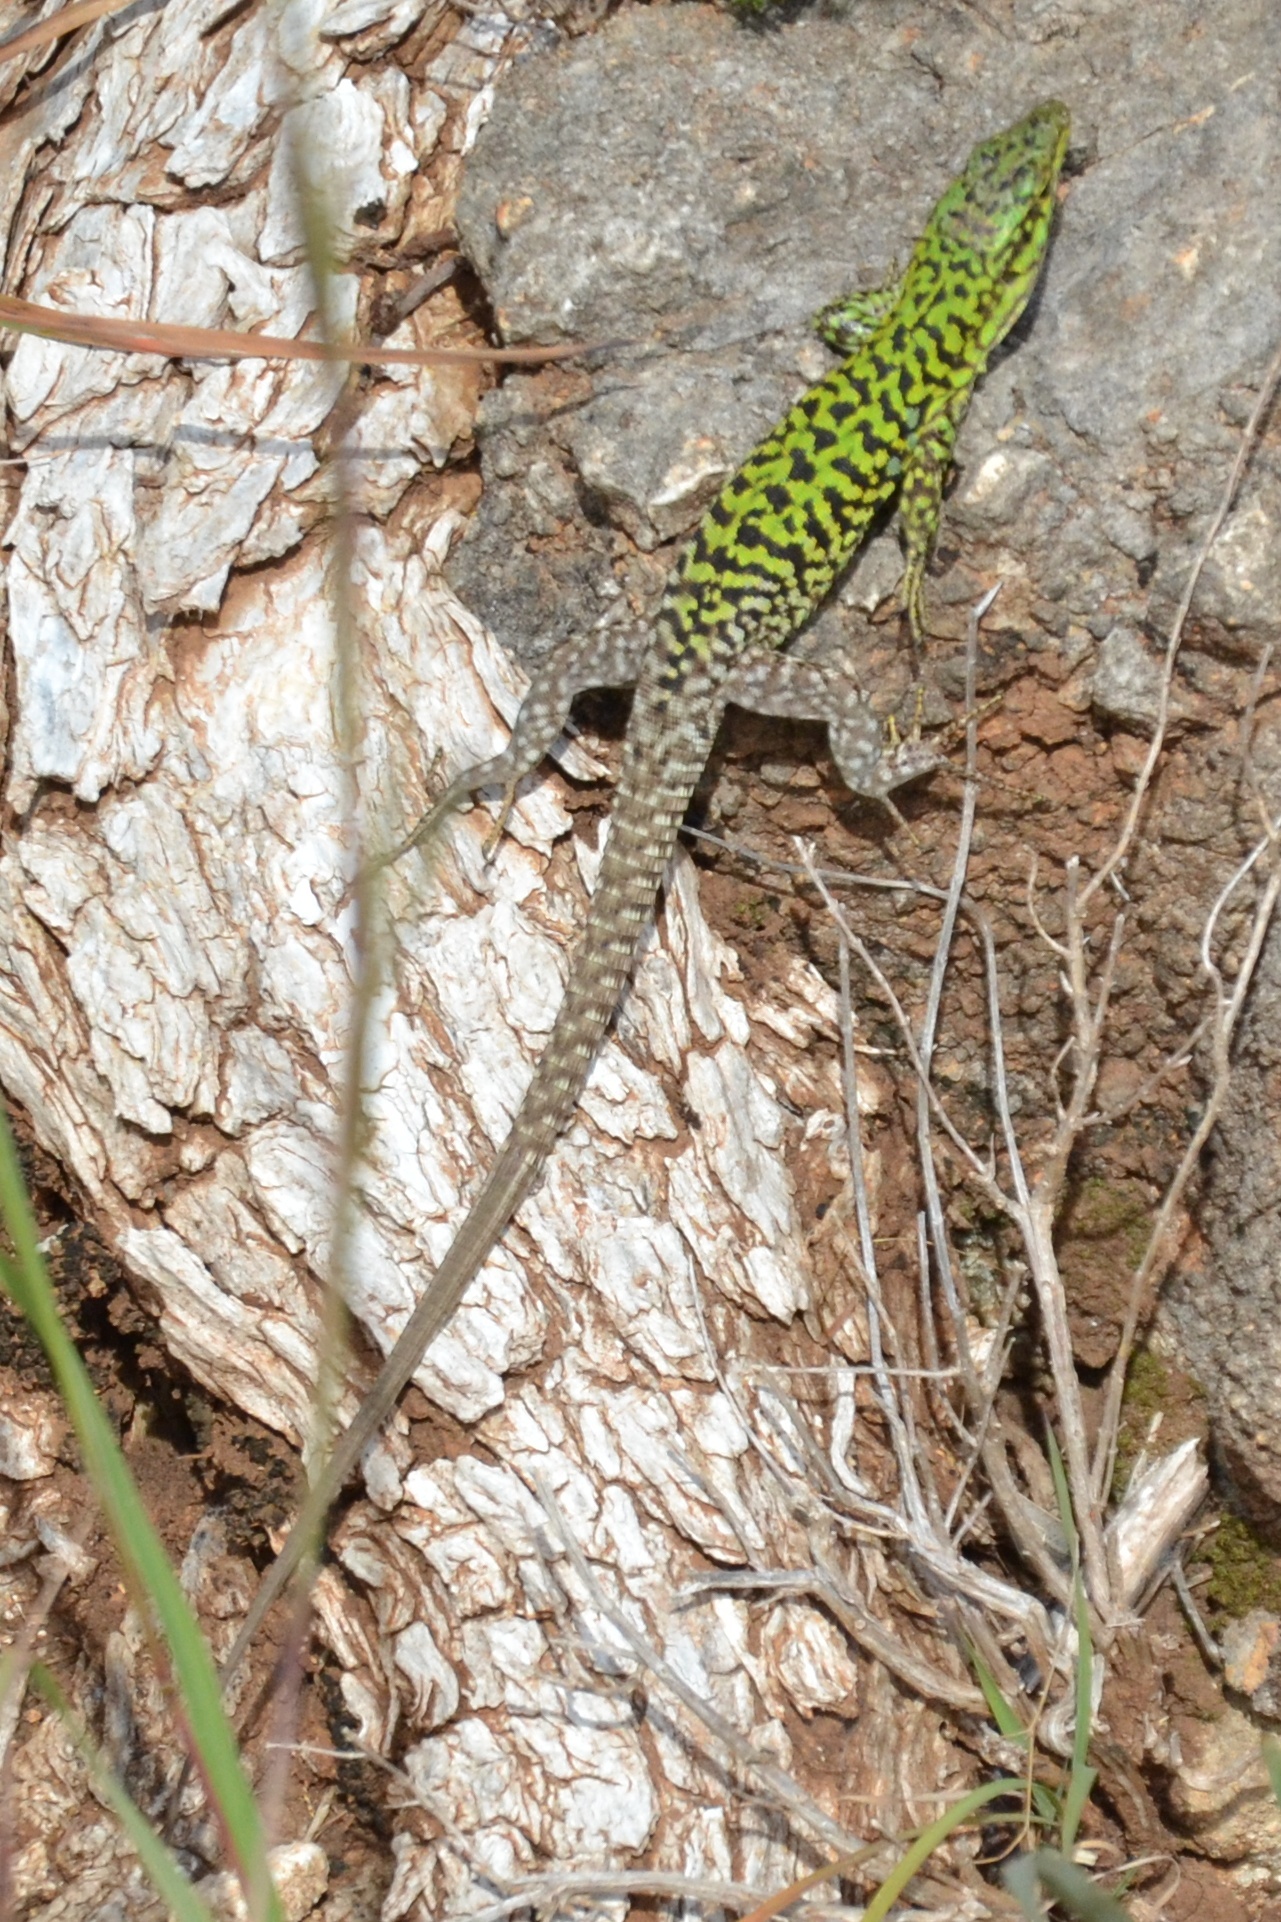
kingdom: Animalia
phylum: Chordata
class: Squamata
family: Lacertidae
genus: Podarcis
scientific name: Podarcis siculus
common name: Italian wall lizard
